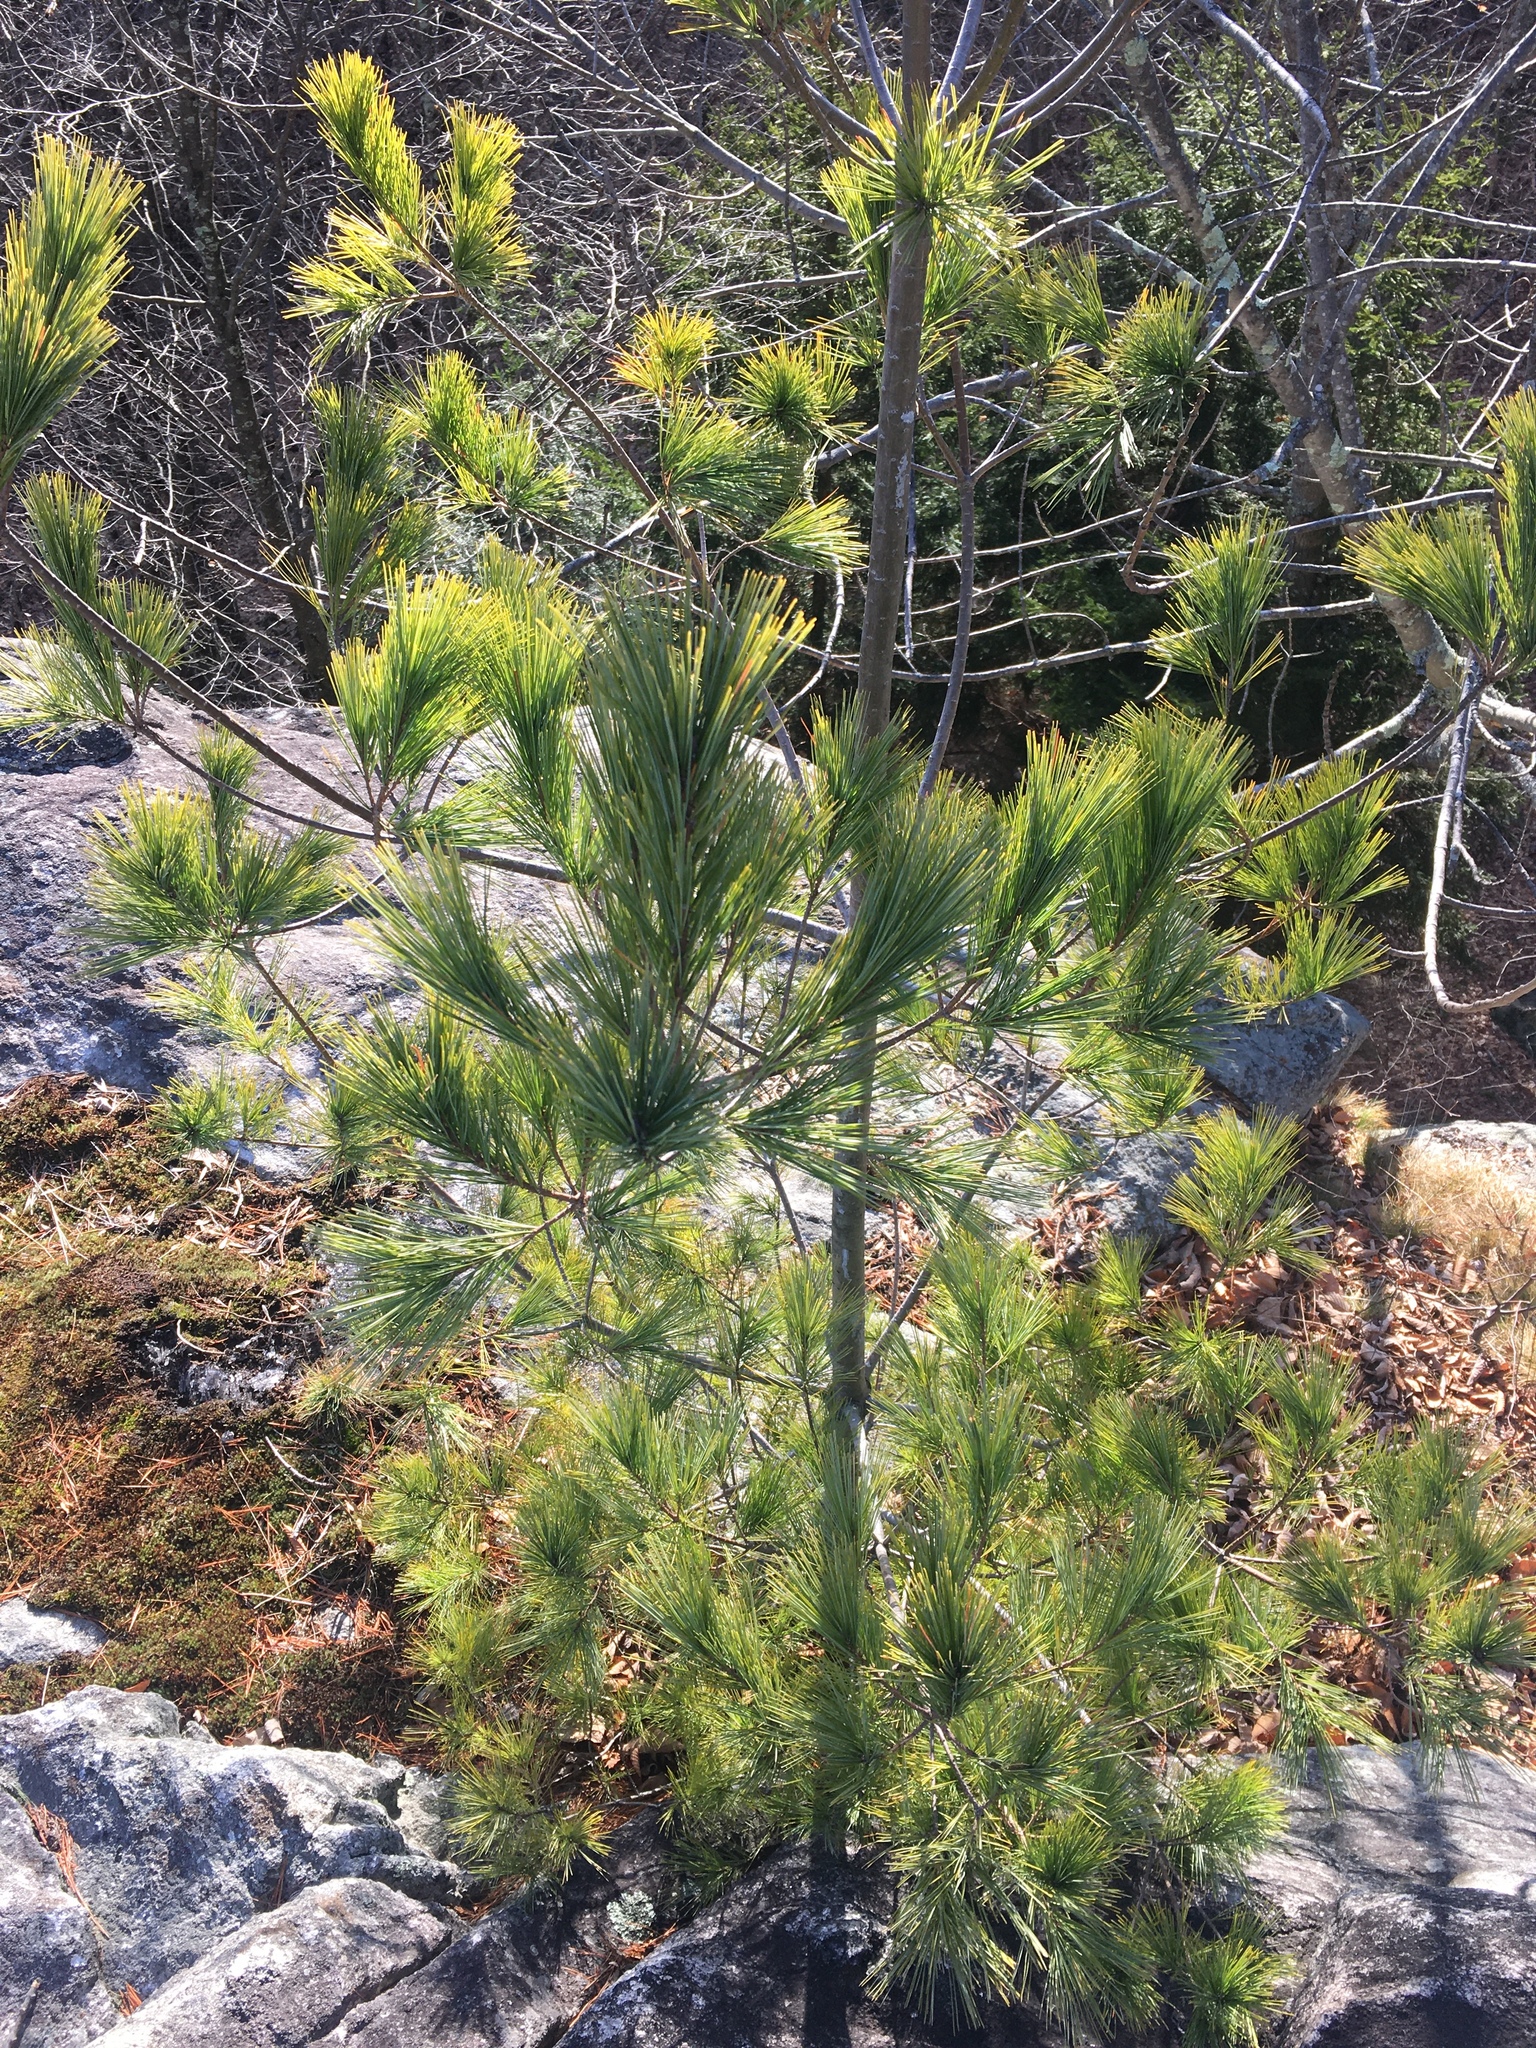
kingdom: Plantae
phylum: Tracheophyta
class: Pinopsida
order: Pinales
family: Pinaceae
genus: Pinus
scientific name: Pinus strobus
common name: Weymouth pine
